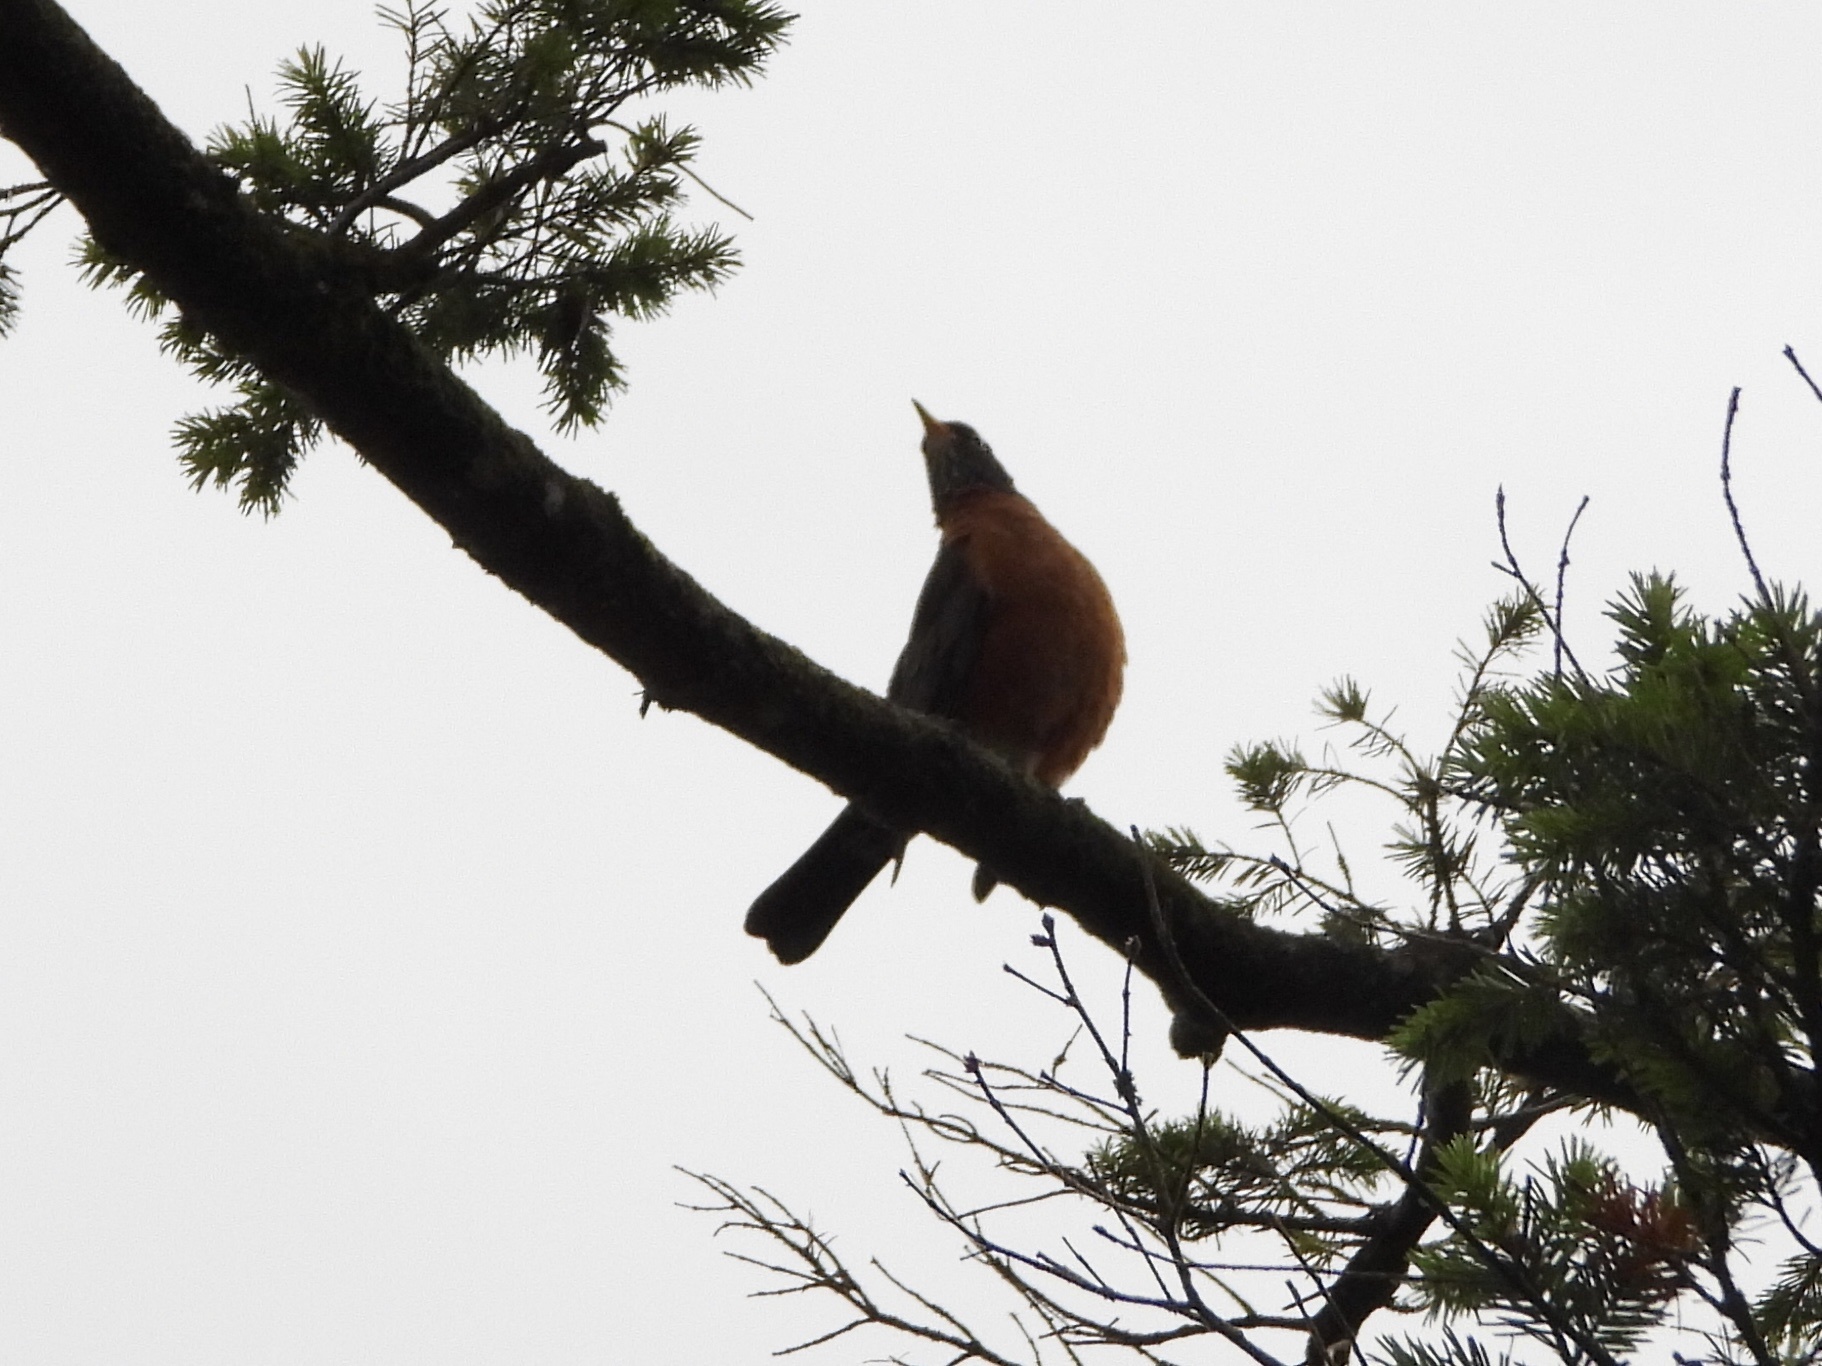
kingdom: Animalia
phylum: Chordata
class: Aves
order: Passeriformes
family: Turdidae
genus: Turdus
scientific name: Turdus migratorius
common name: American robin
